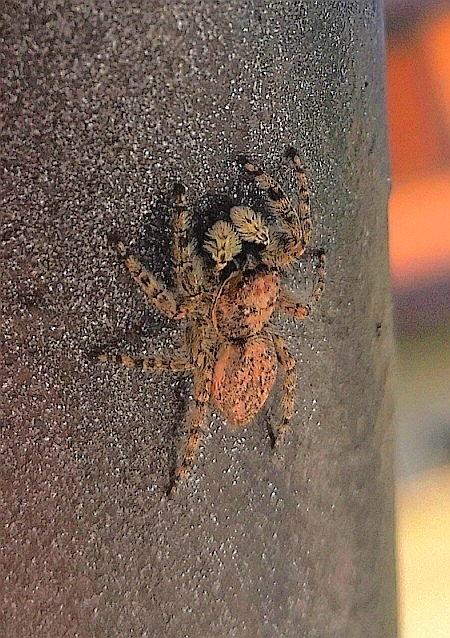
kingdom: Animalia
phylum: Arthropoda
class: Arachnida
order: Araneae
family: Salticidae
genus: Menemerus
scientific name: Menemerus semilimbatus
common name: Jumping spider
